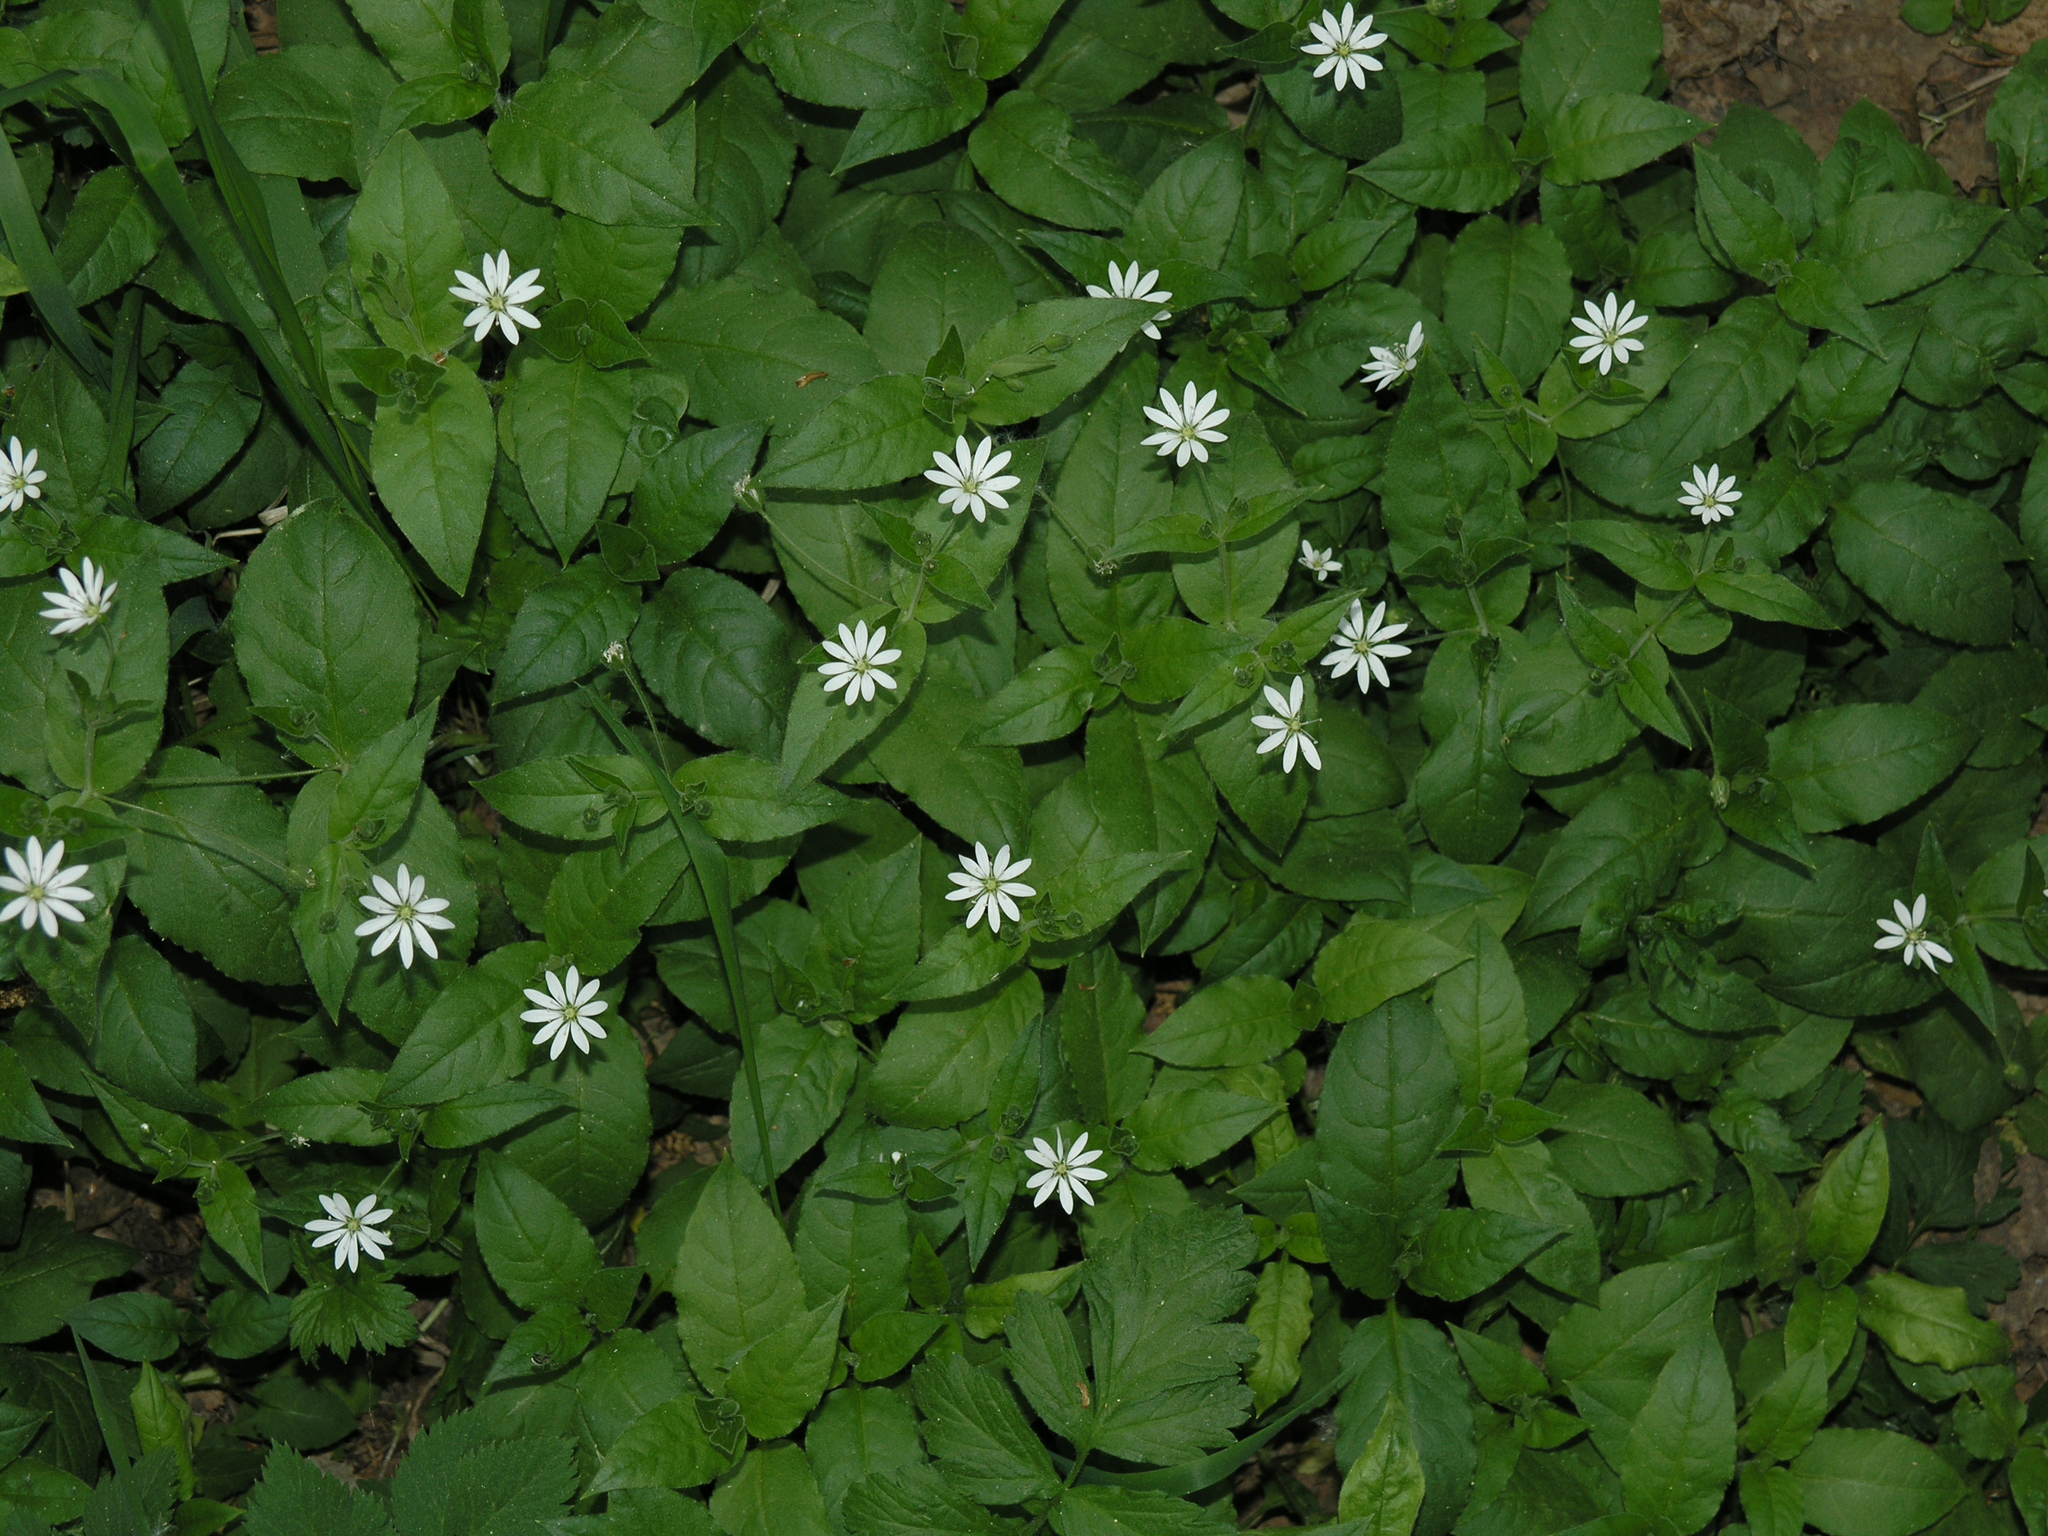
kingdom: Plantae
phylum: Tracheophyta
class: Magnoliopsida
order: Caryophyllales
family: Caryophyllaceae
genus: Stellaria
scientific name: Stellaria bungeana
